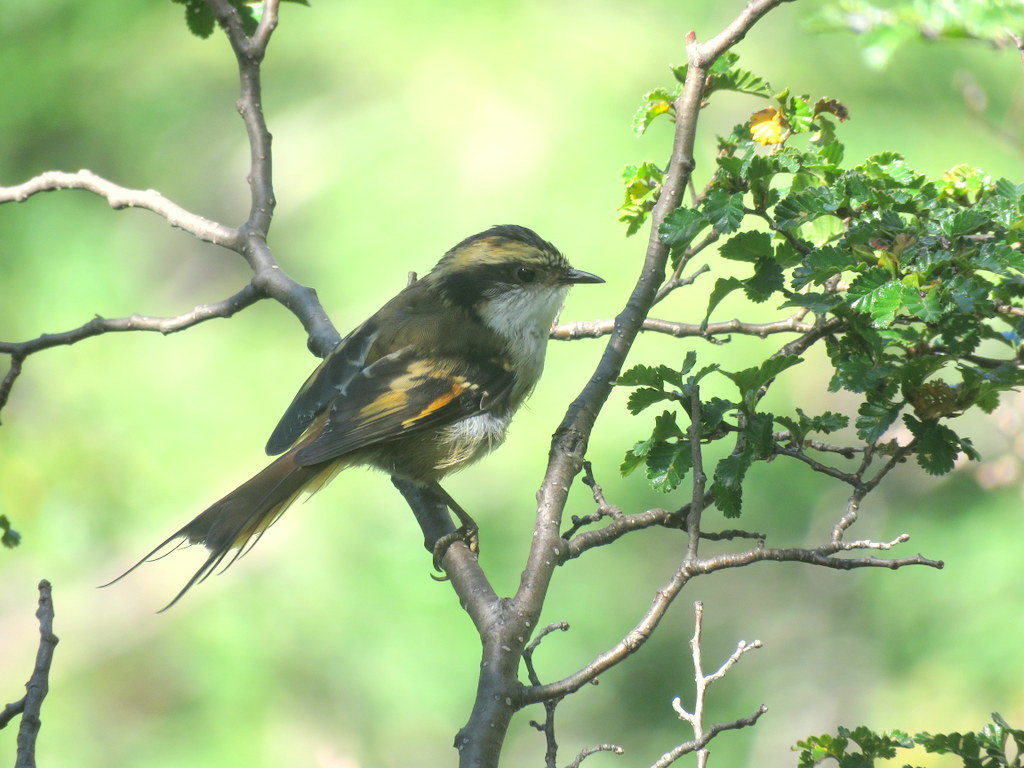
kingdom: Animalia
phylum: Chordata
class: Aves
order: Passeriformes
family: Furnariidae
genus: Aphrastura
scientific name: Aphrastura spinicauda
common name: Thorn-tailed rayadito
